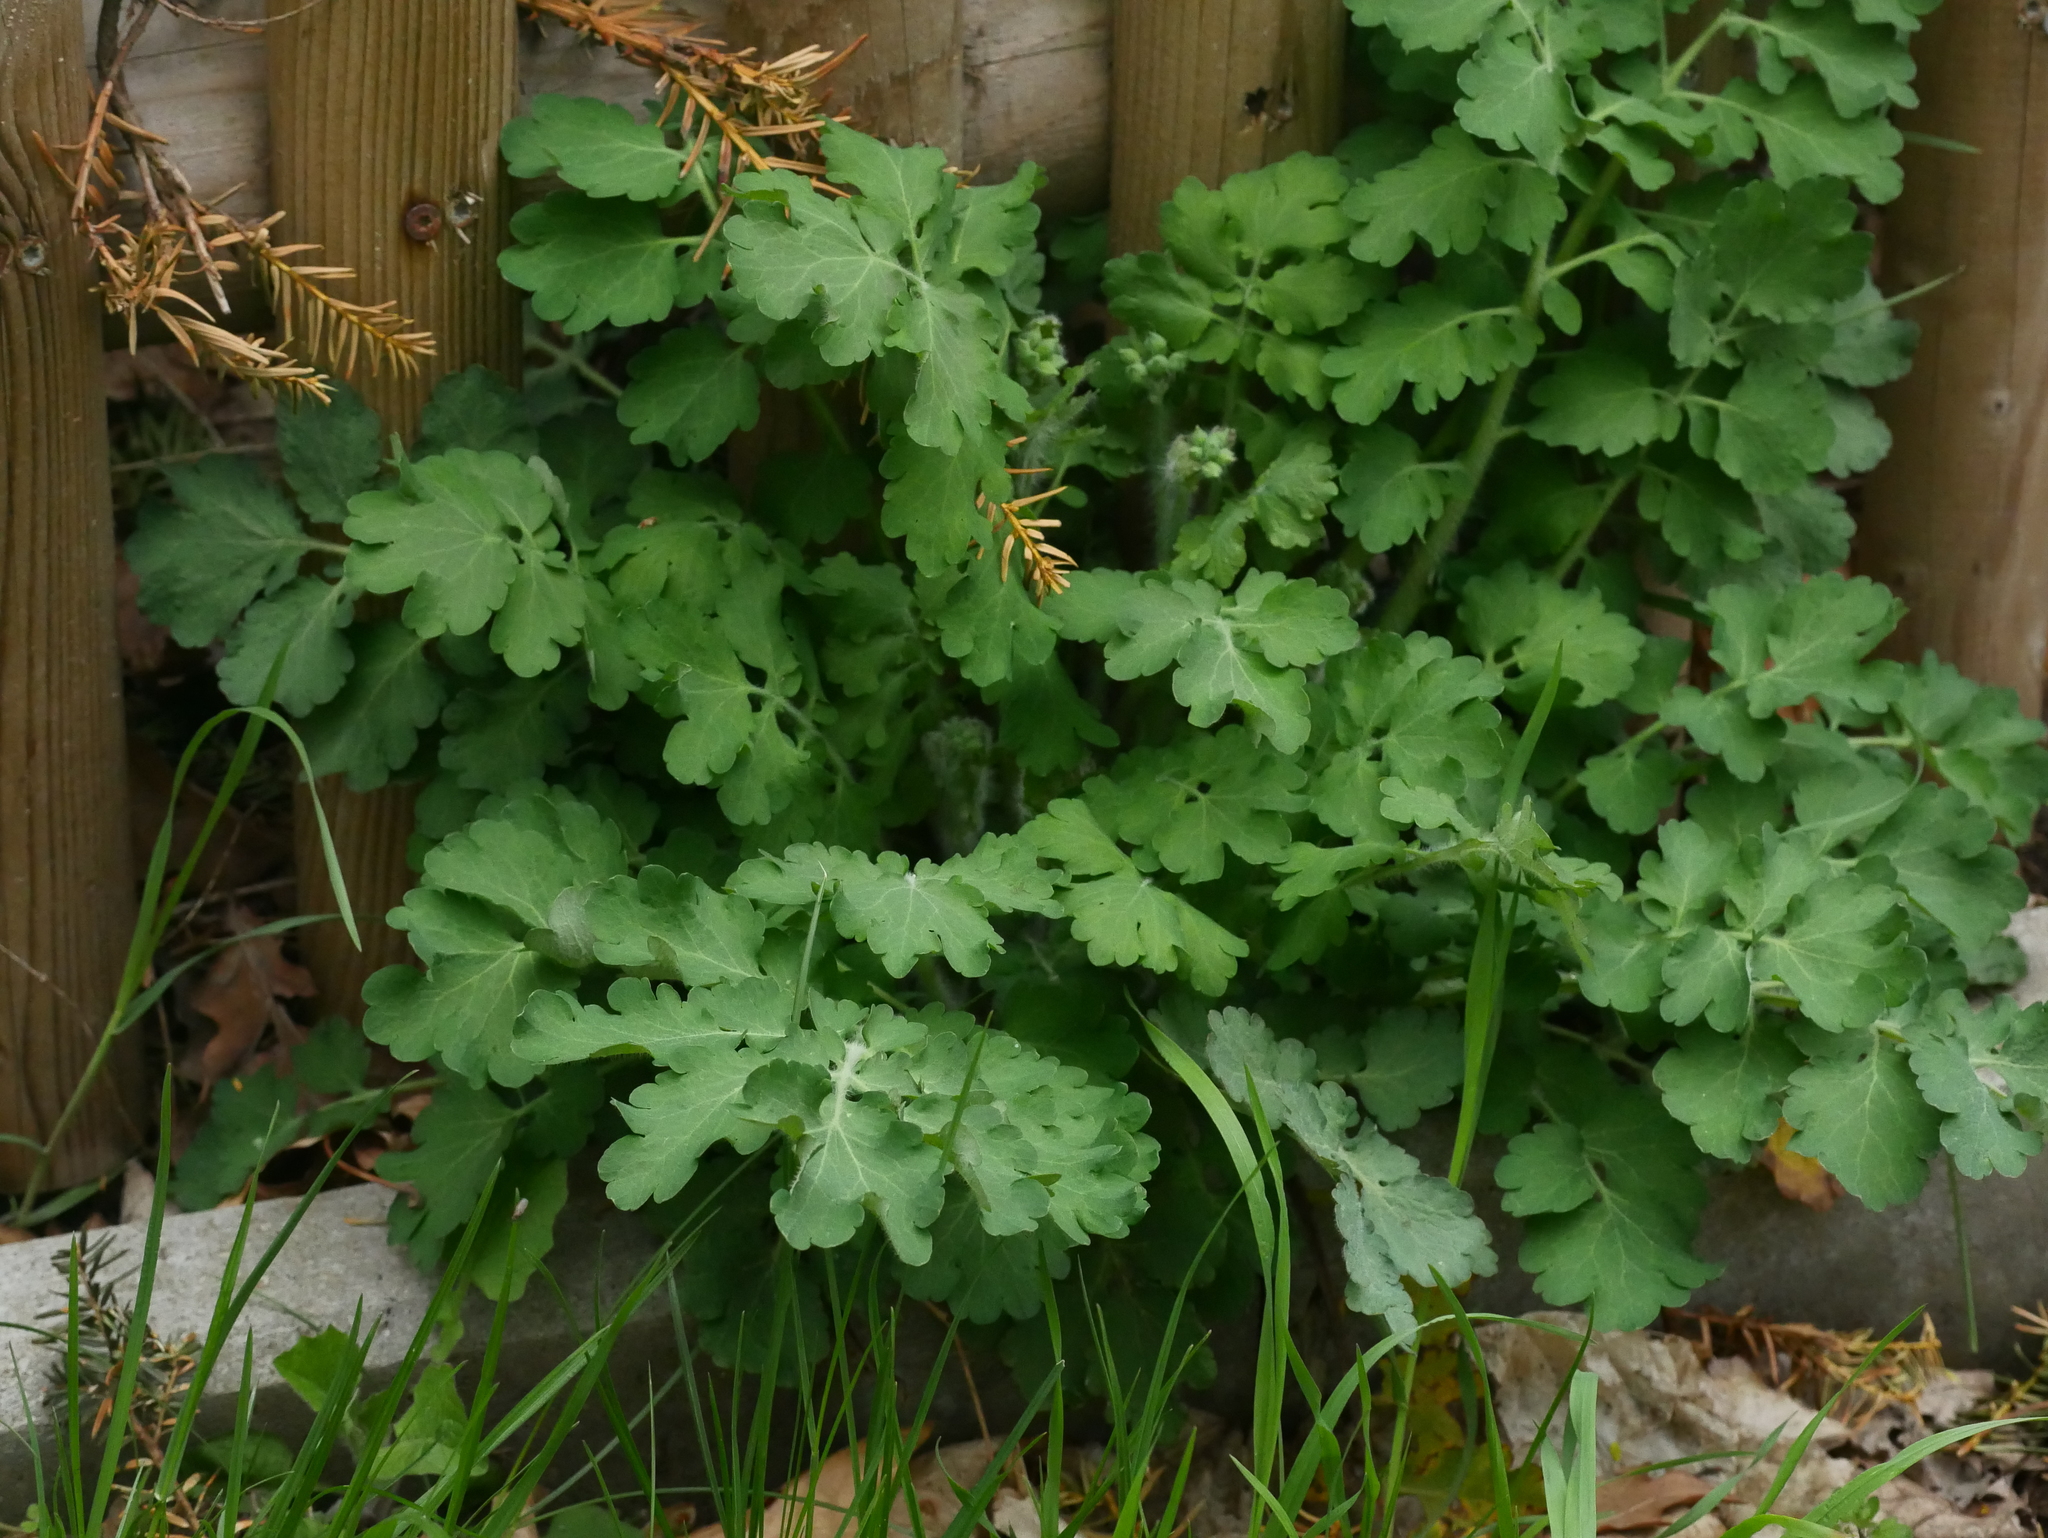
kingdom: Plantae
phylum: Tracheophyta
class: Magnoliopsida
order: Ranunculales
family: Papaveraceae
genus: Chelidonium
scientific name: Chelidonium majus
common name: Greater celandine
